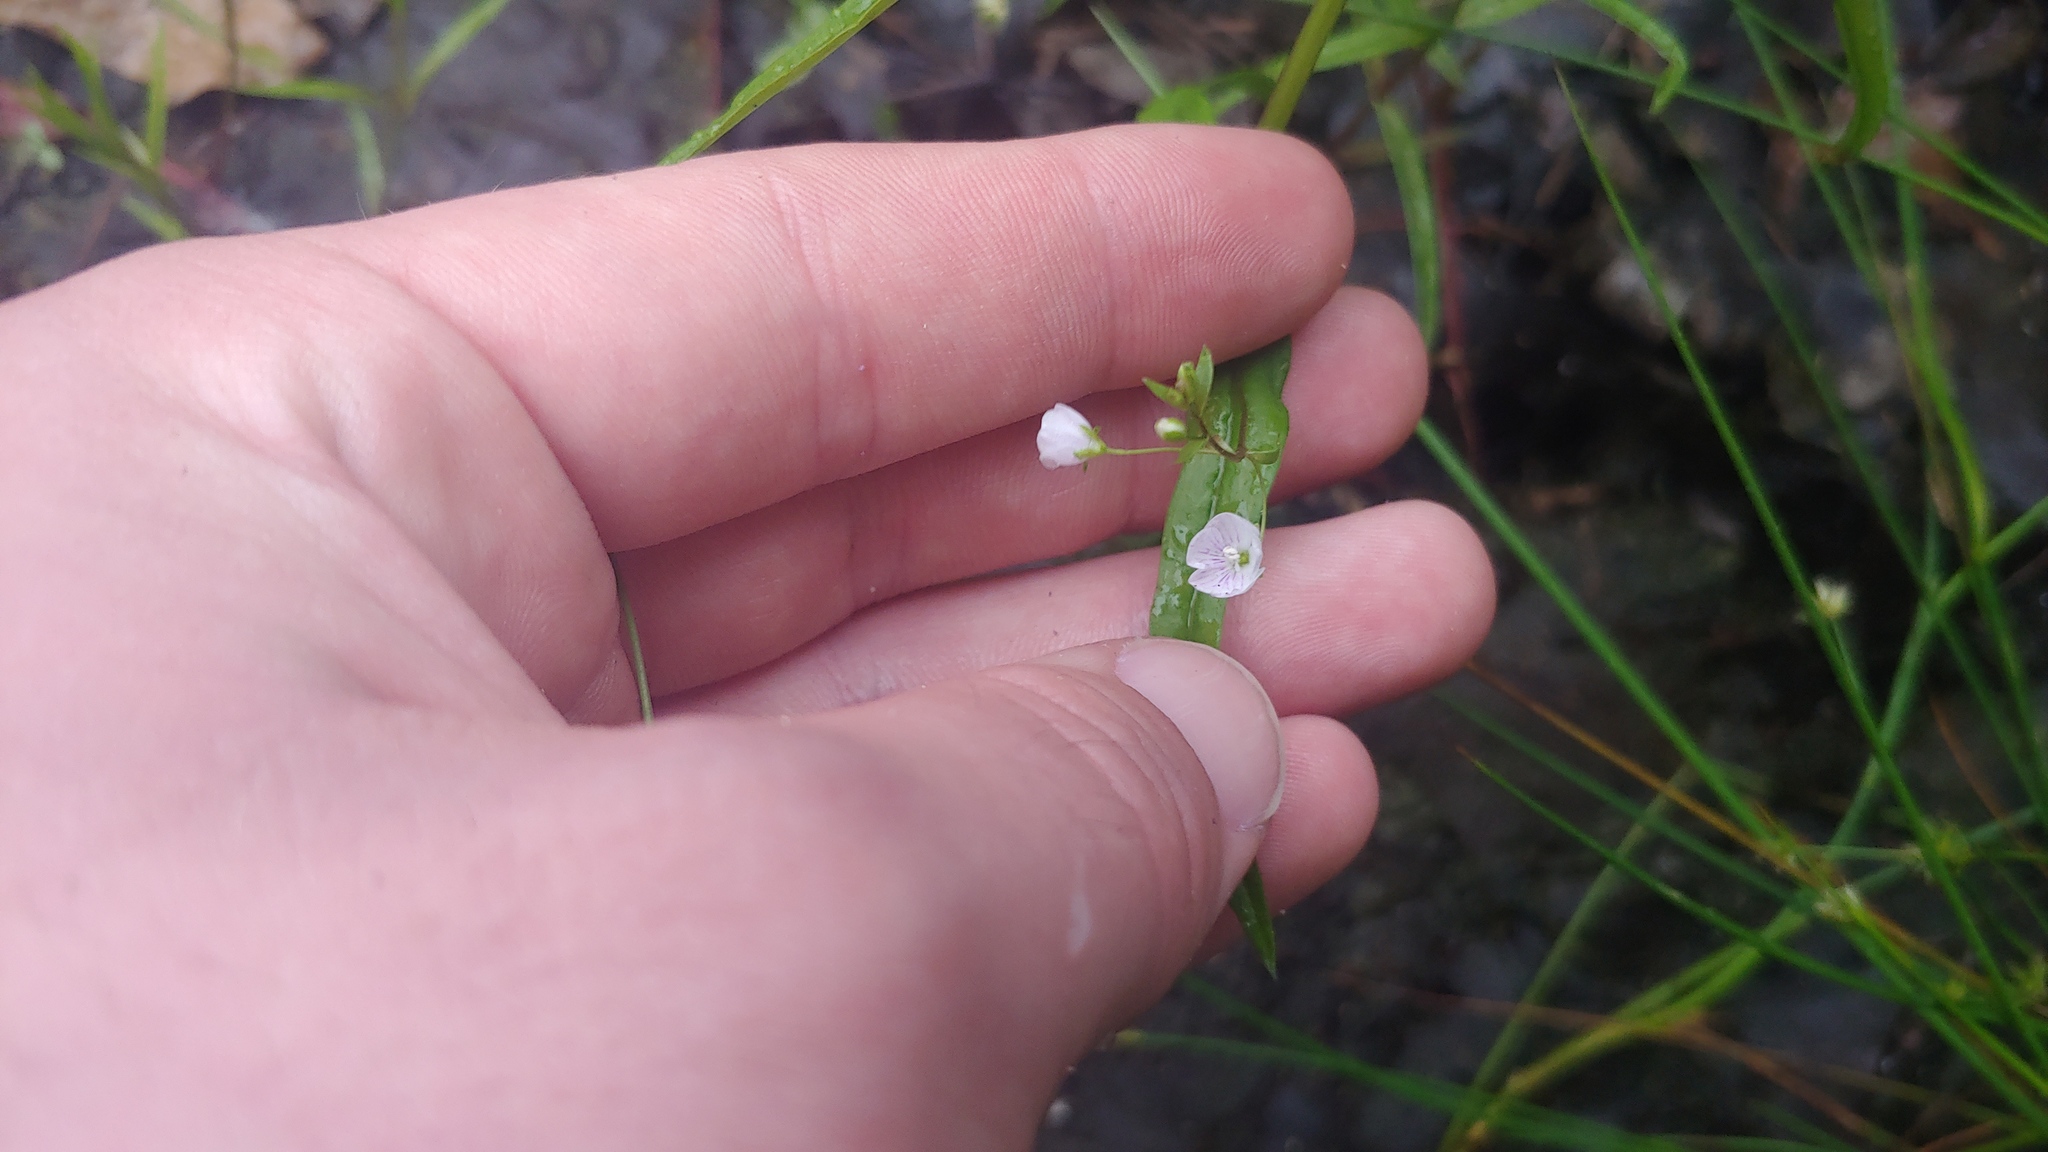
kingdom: Plantae
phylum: Tracheophyta
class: Magnoliopsida
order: Lamiales
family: Plantaginaceae
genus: Veronica
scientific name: Veronica scutellata
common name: Marsh speedwell
